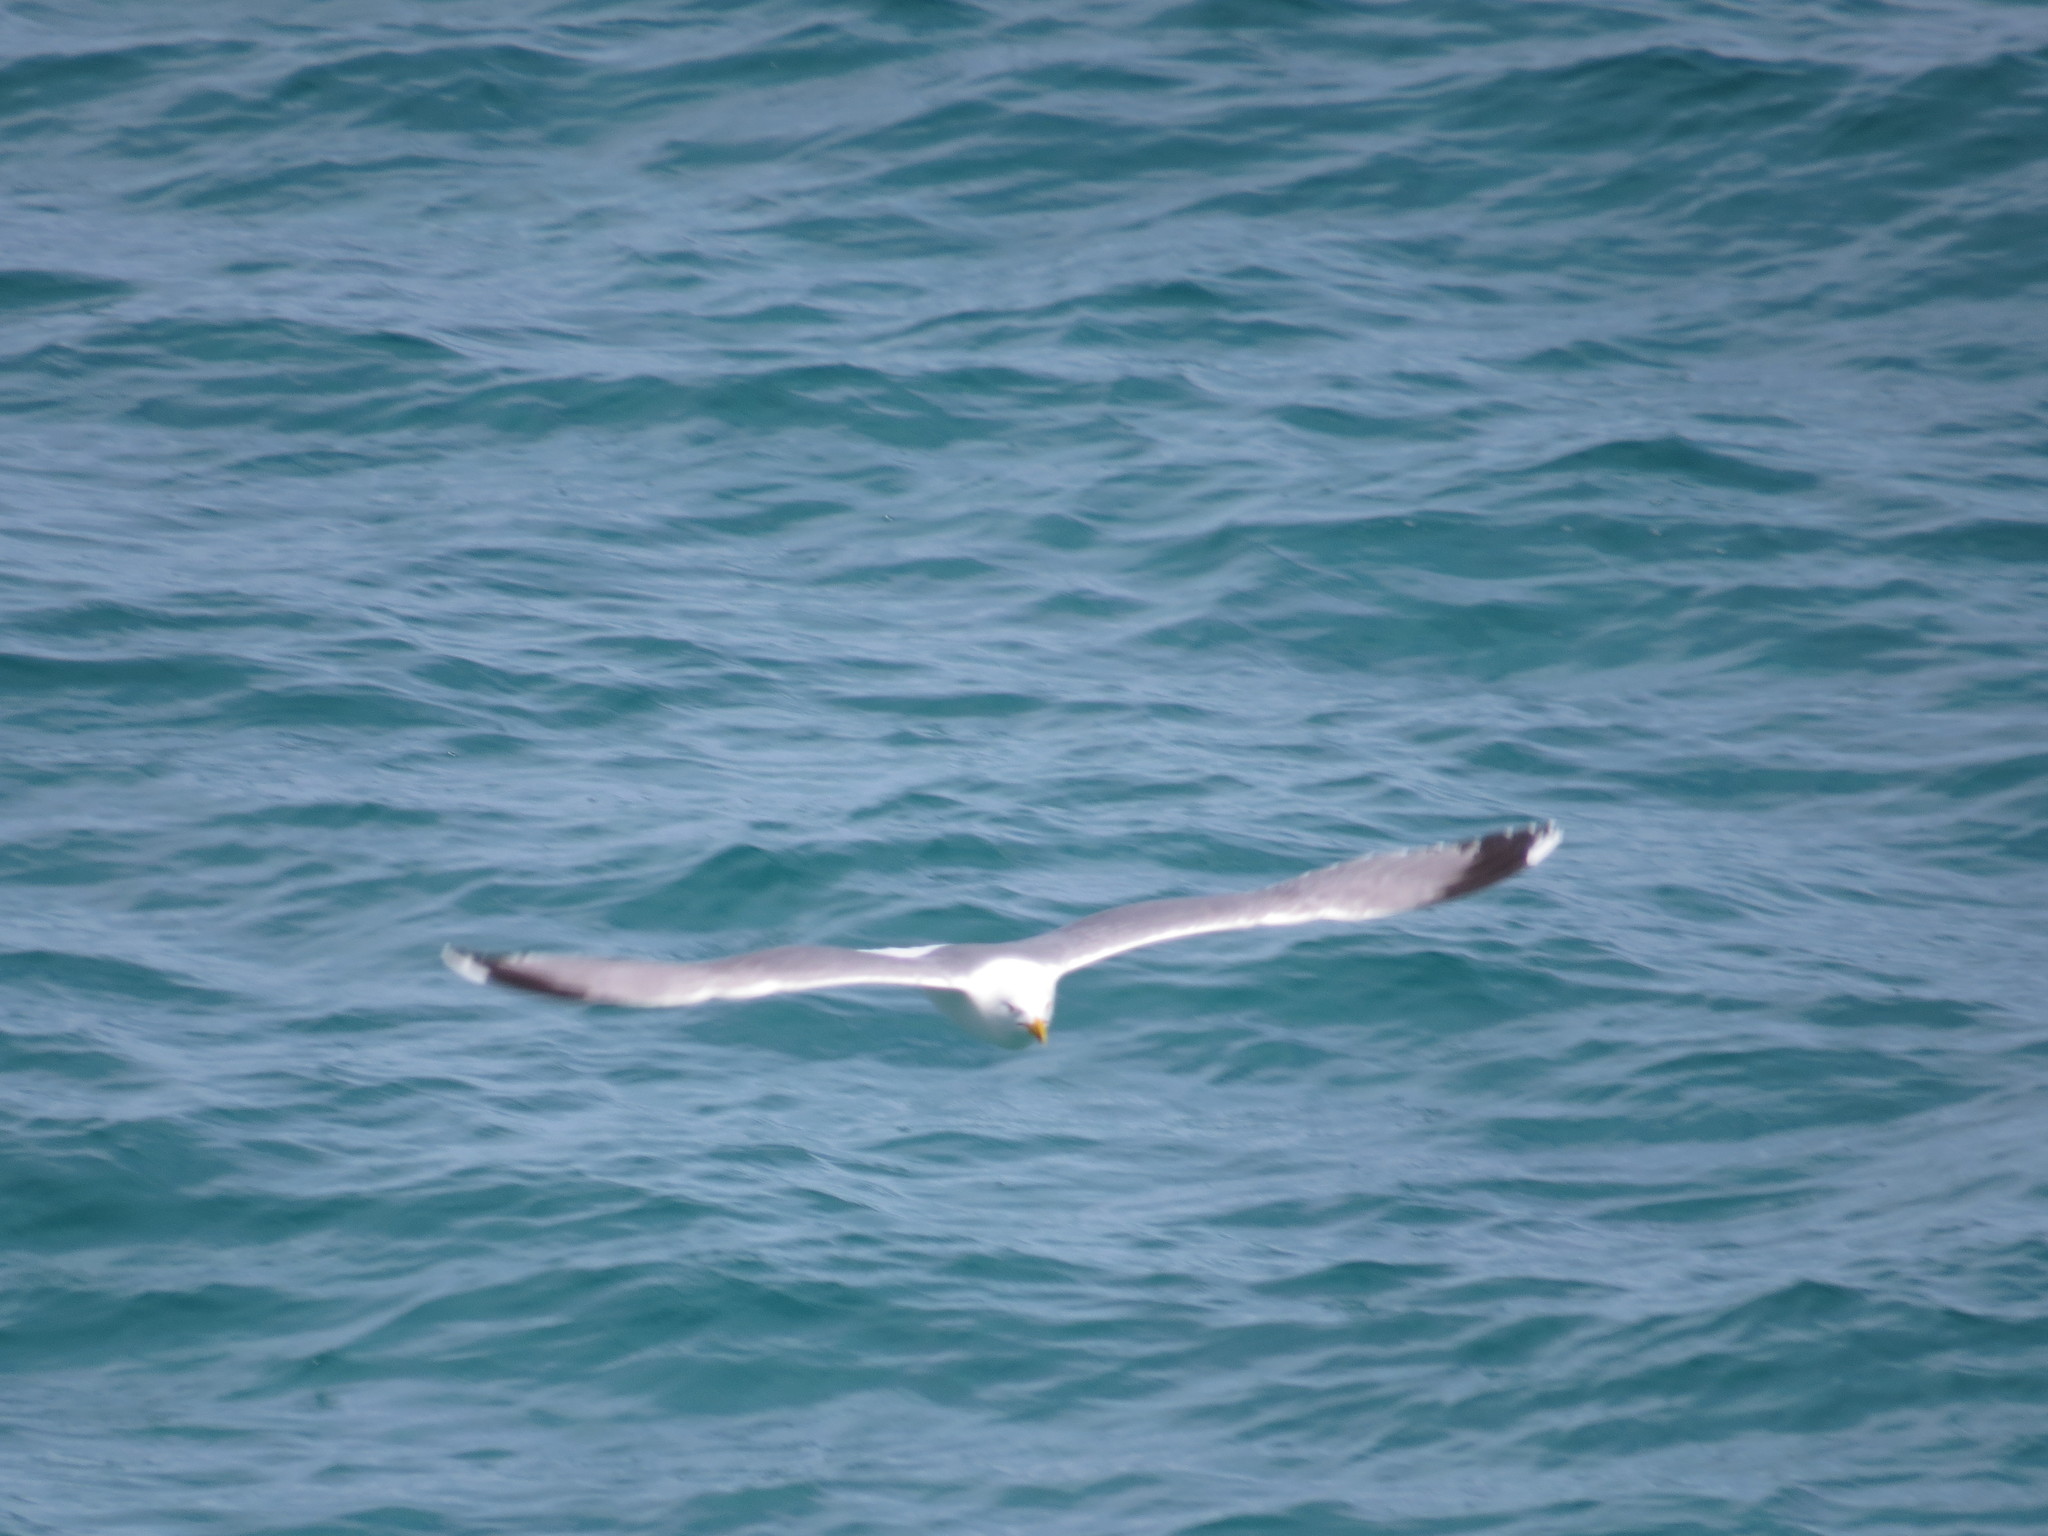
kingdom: Animalia
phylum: Chordata
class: Aves
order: Charadriiformes
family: Laridae
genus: Larus
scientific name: Larus michahellis
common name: Yellow-legged gull
